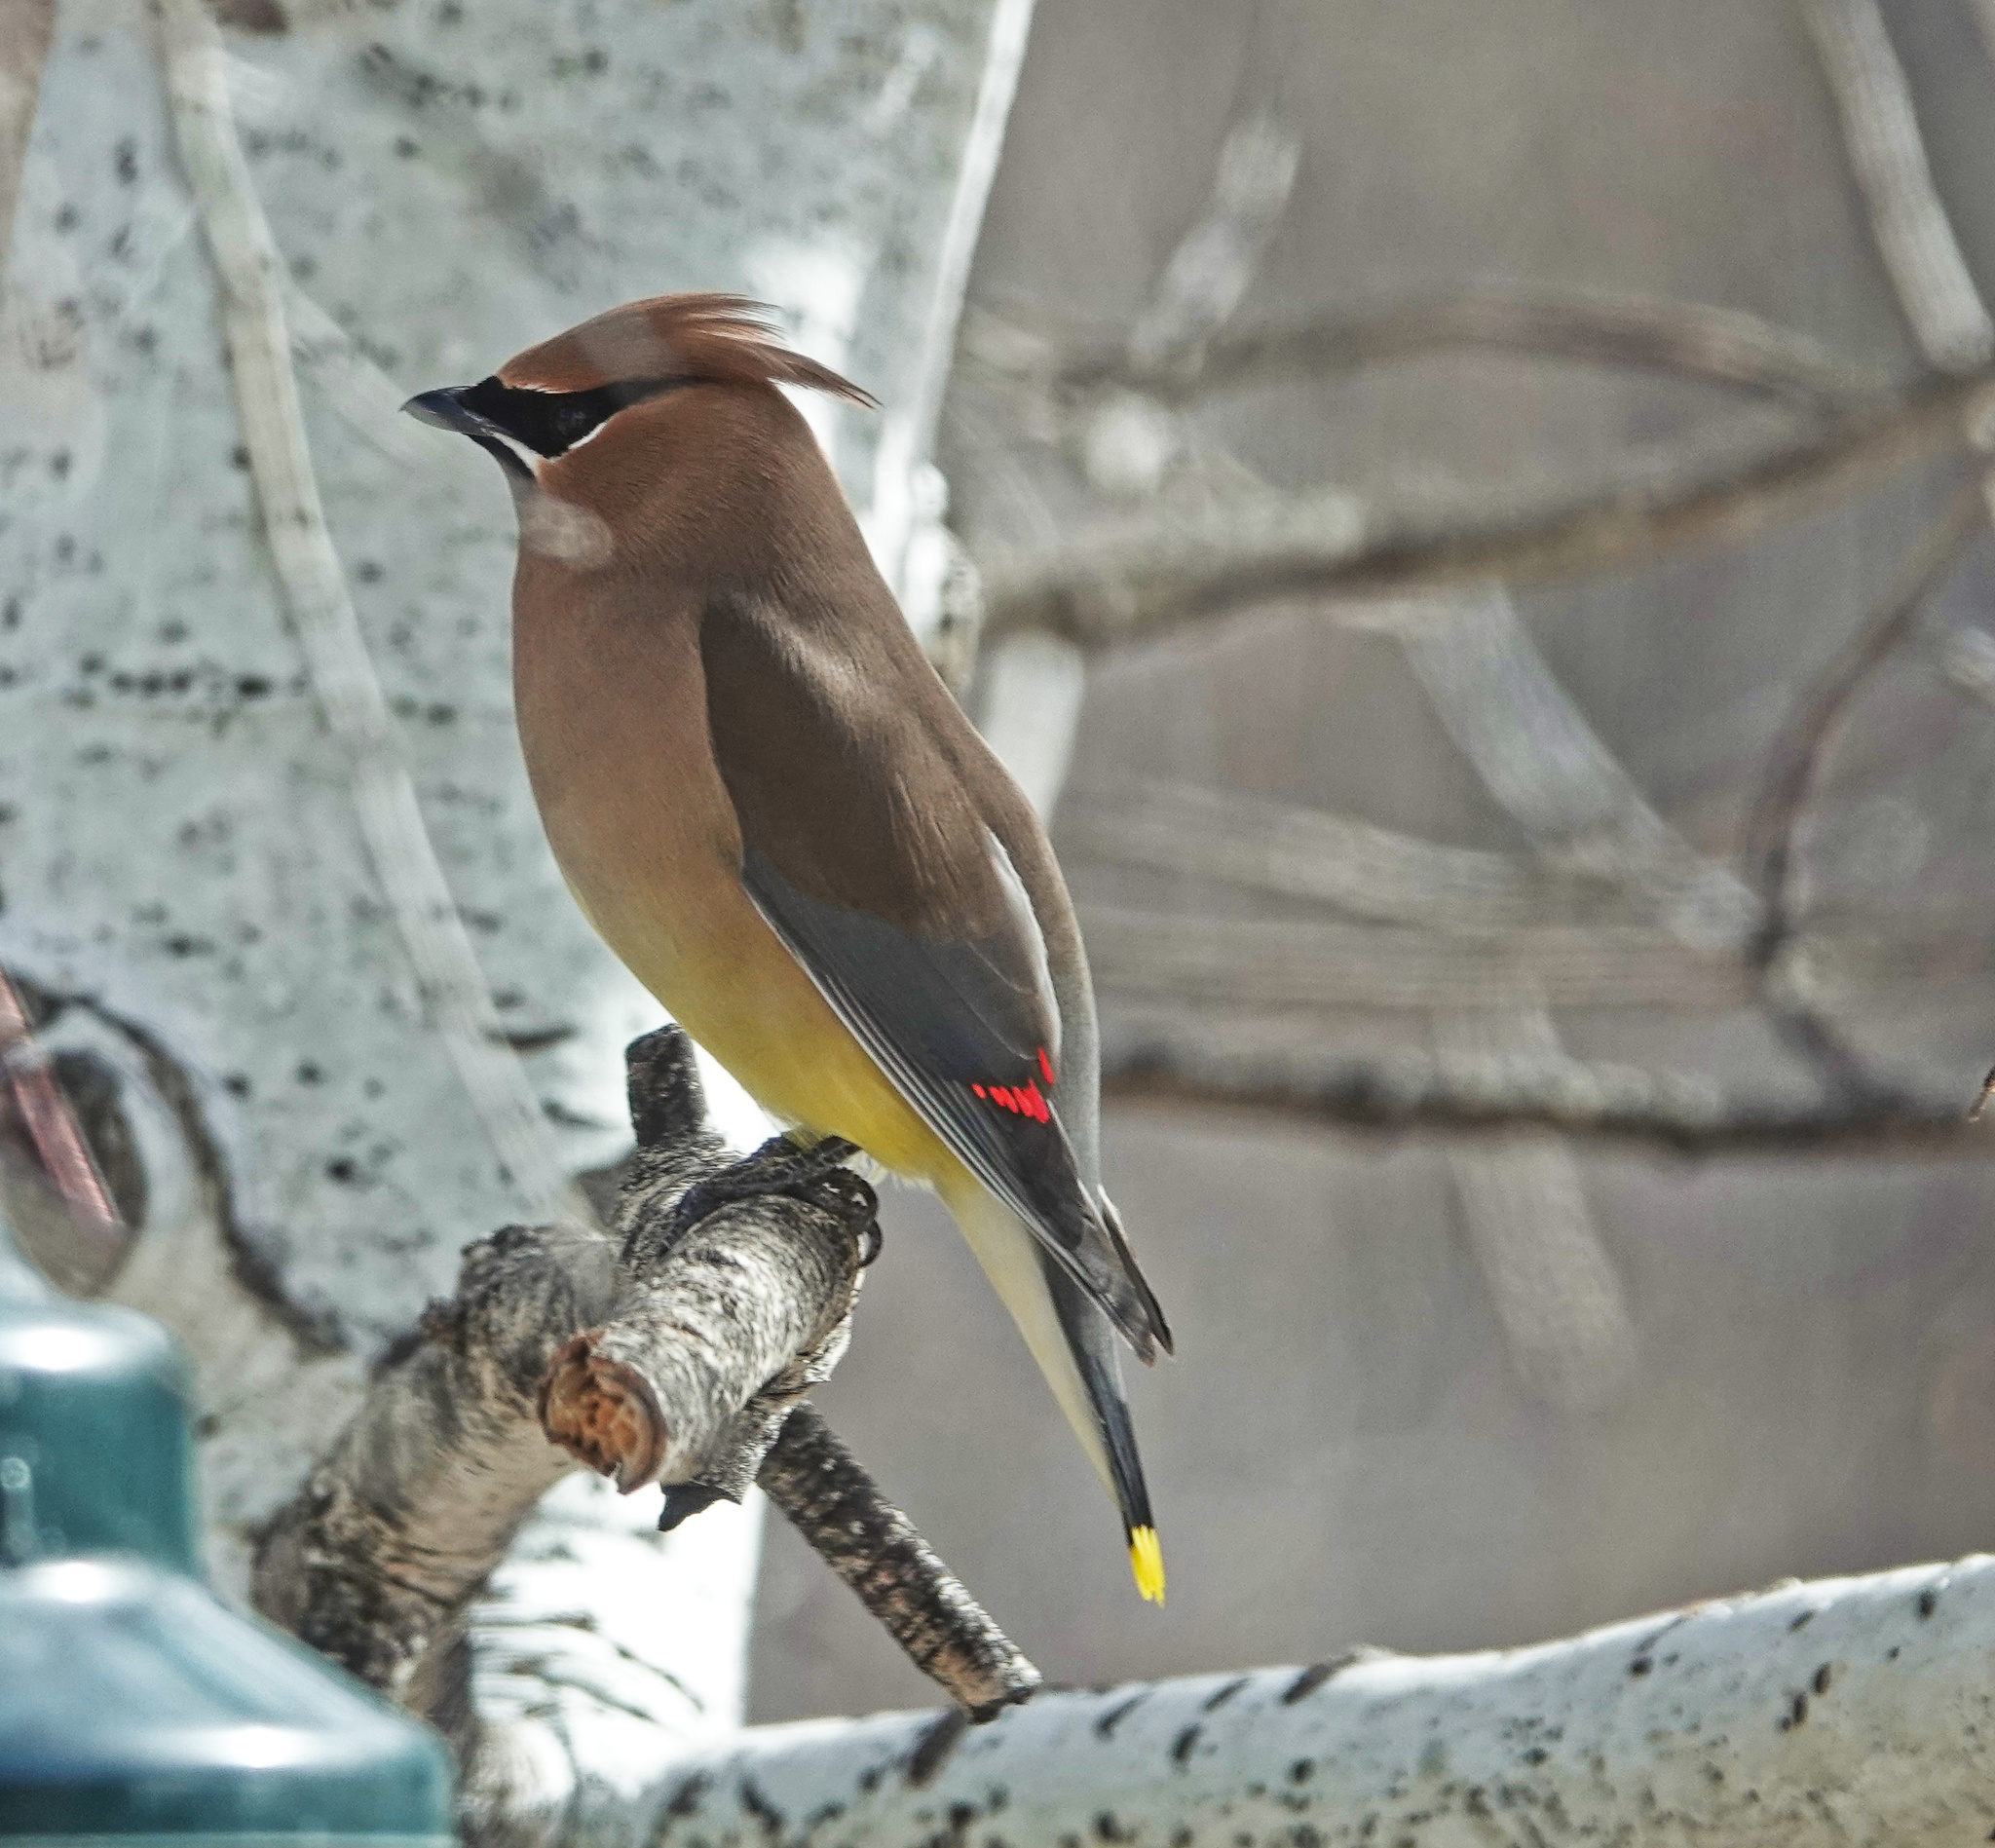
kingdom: Animalia
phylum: Chordata
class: Aves
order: Passeriformes
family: Bombycillidae
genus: Bombycilla
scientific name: Bombycilla cedrorum
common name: Cedar waxwing
